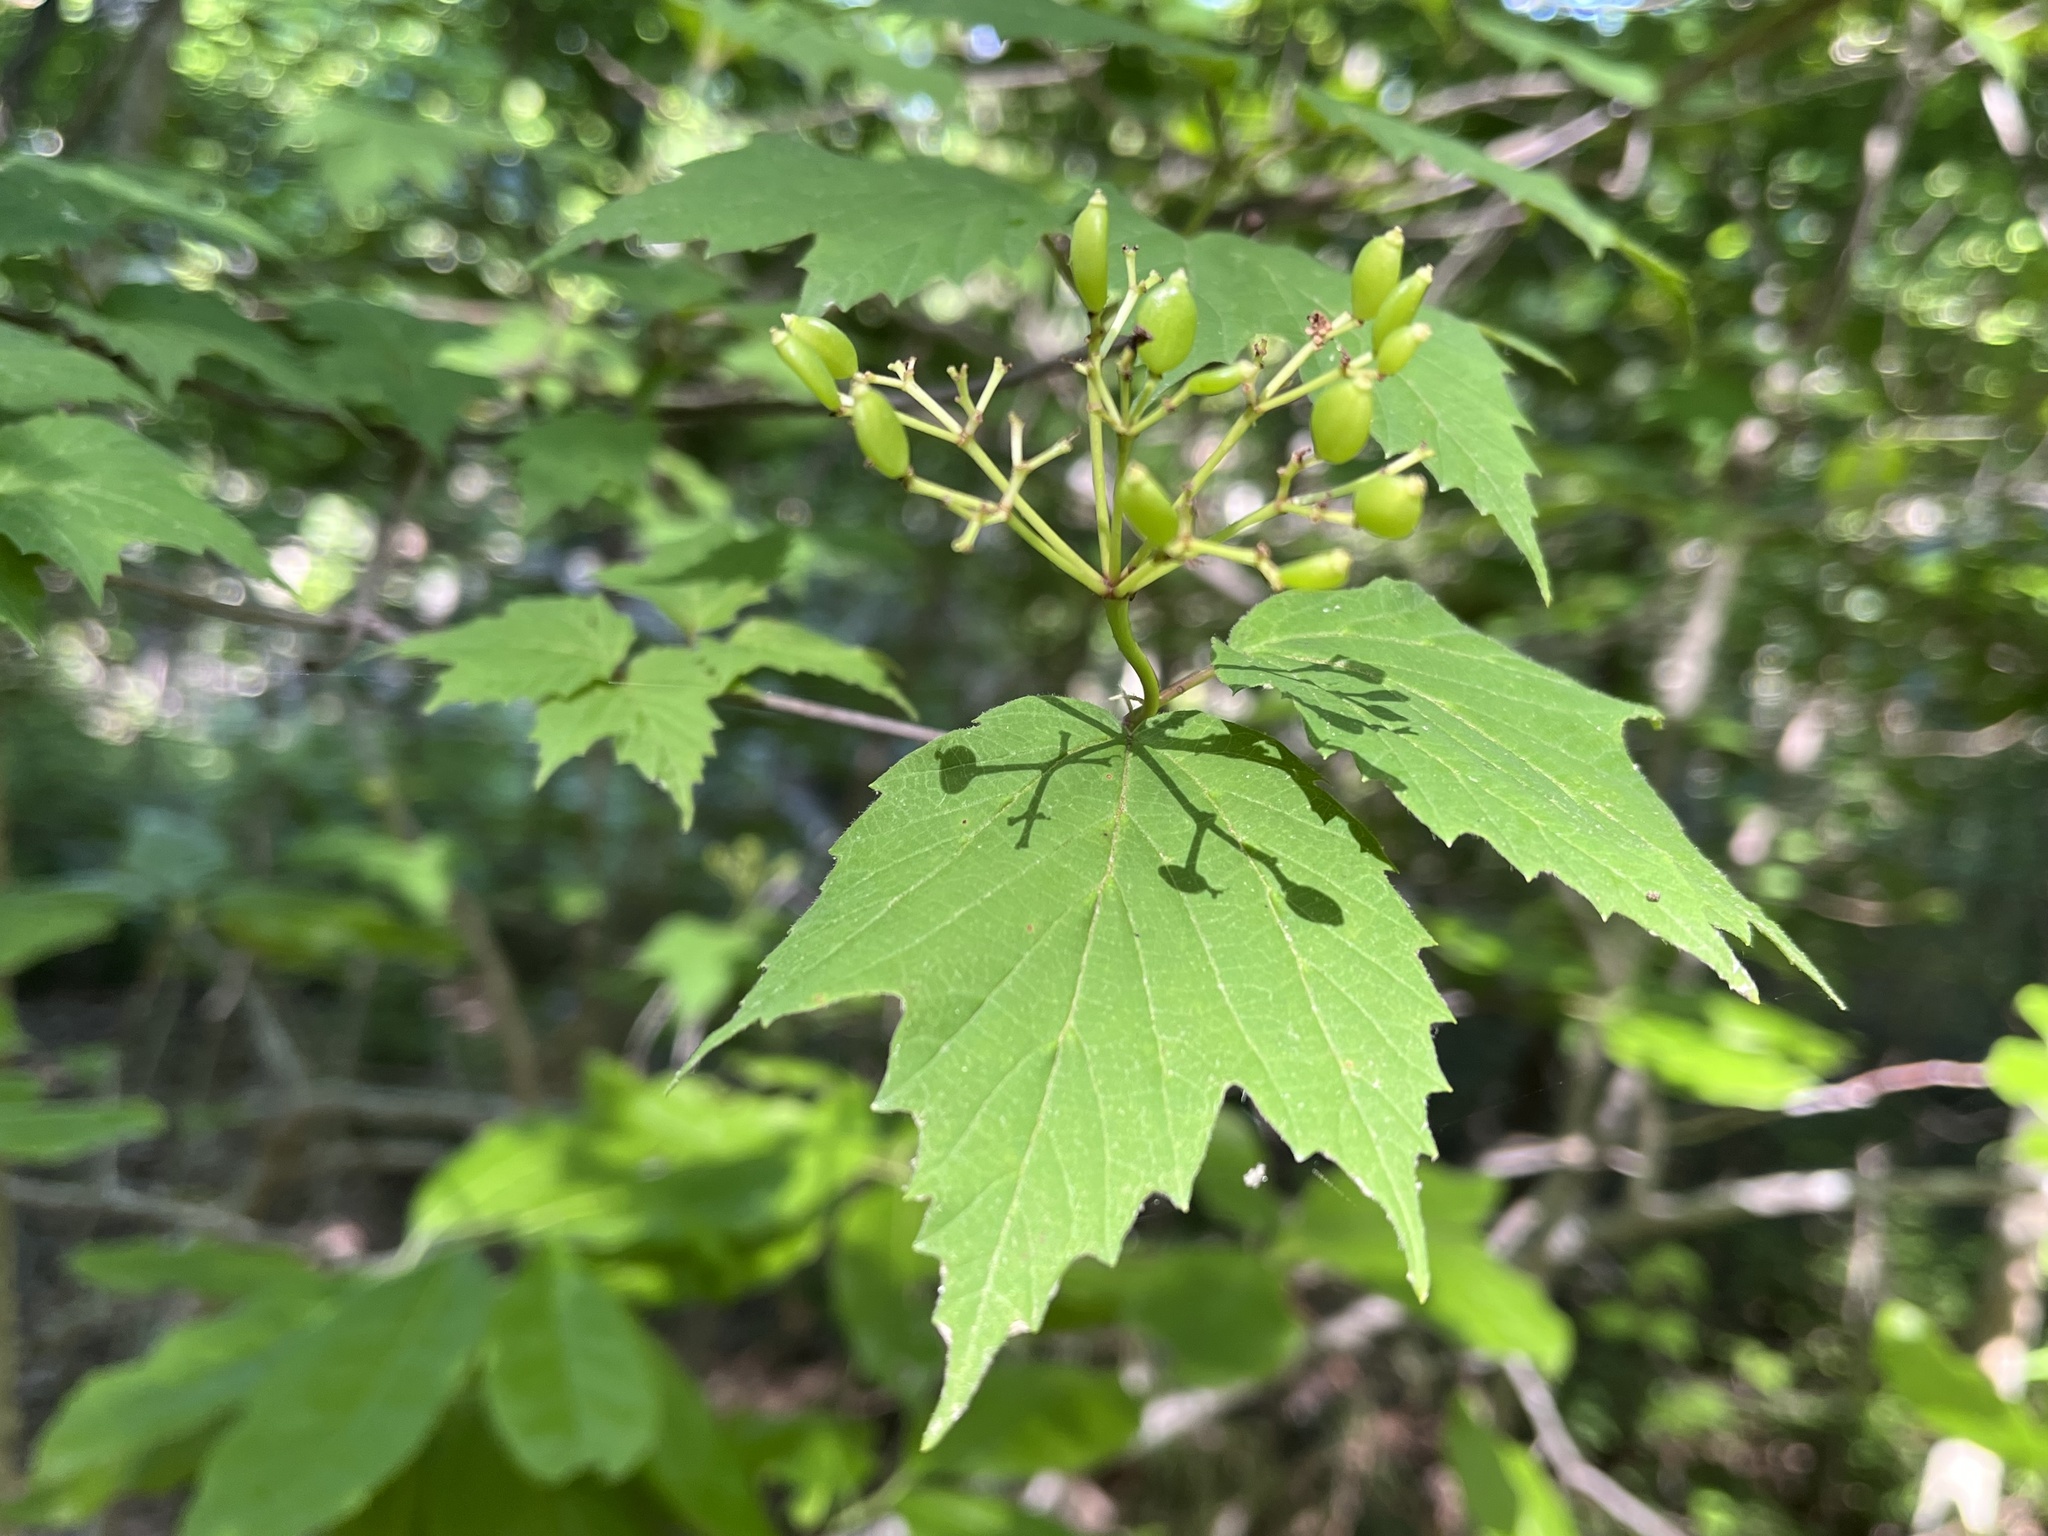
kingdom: Plantae
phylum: Tracheophyta
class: Magnoliopsida
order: Dipsacales
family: Viburnaceae
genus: Viburnum
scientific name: Viburnum acerifolium
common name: Dockmackie
